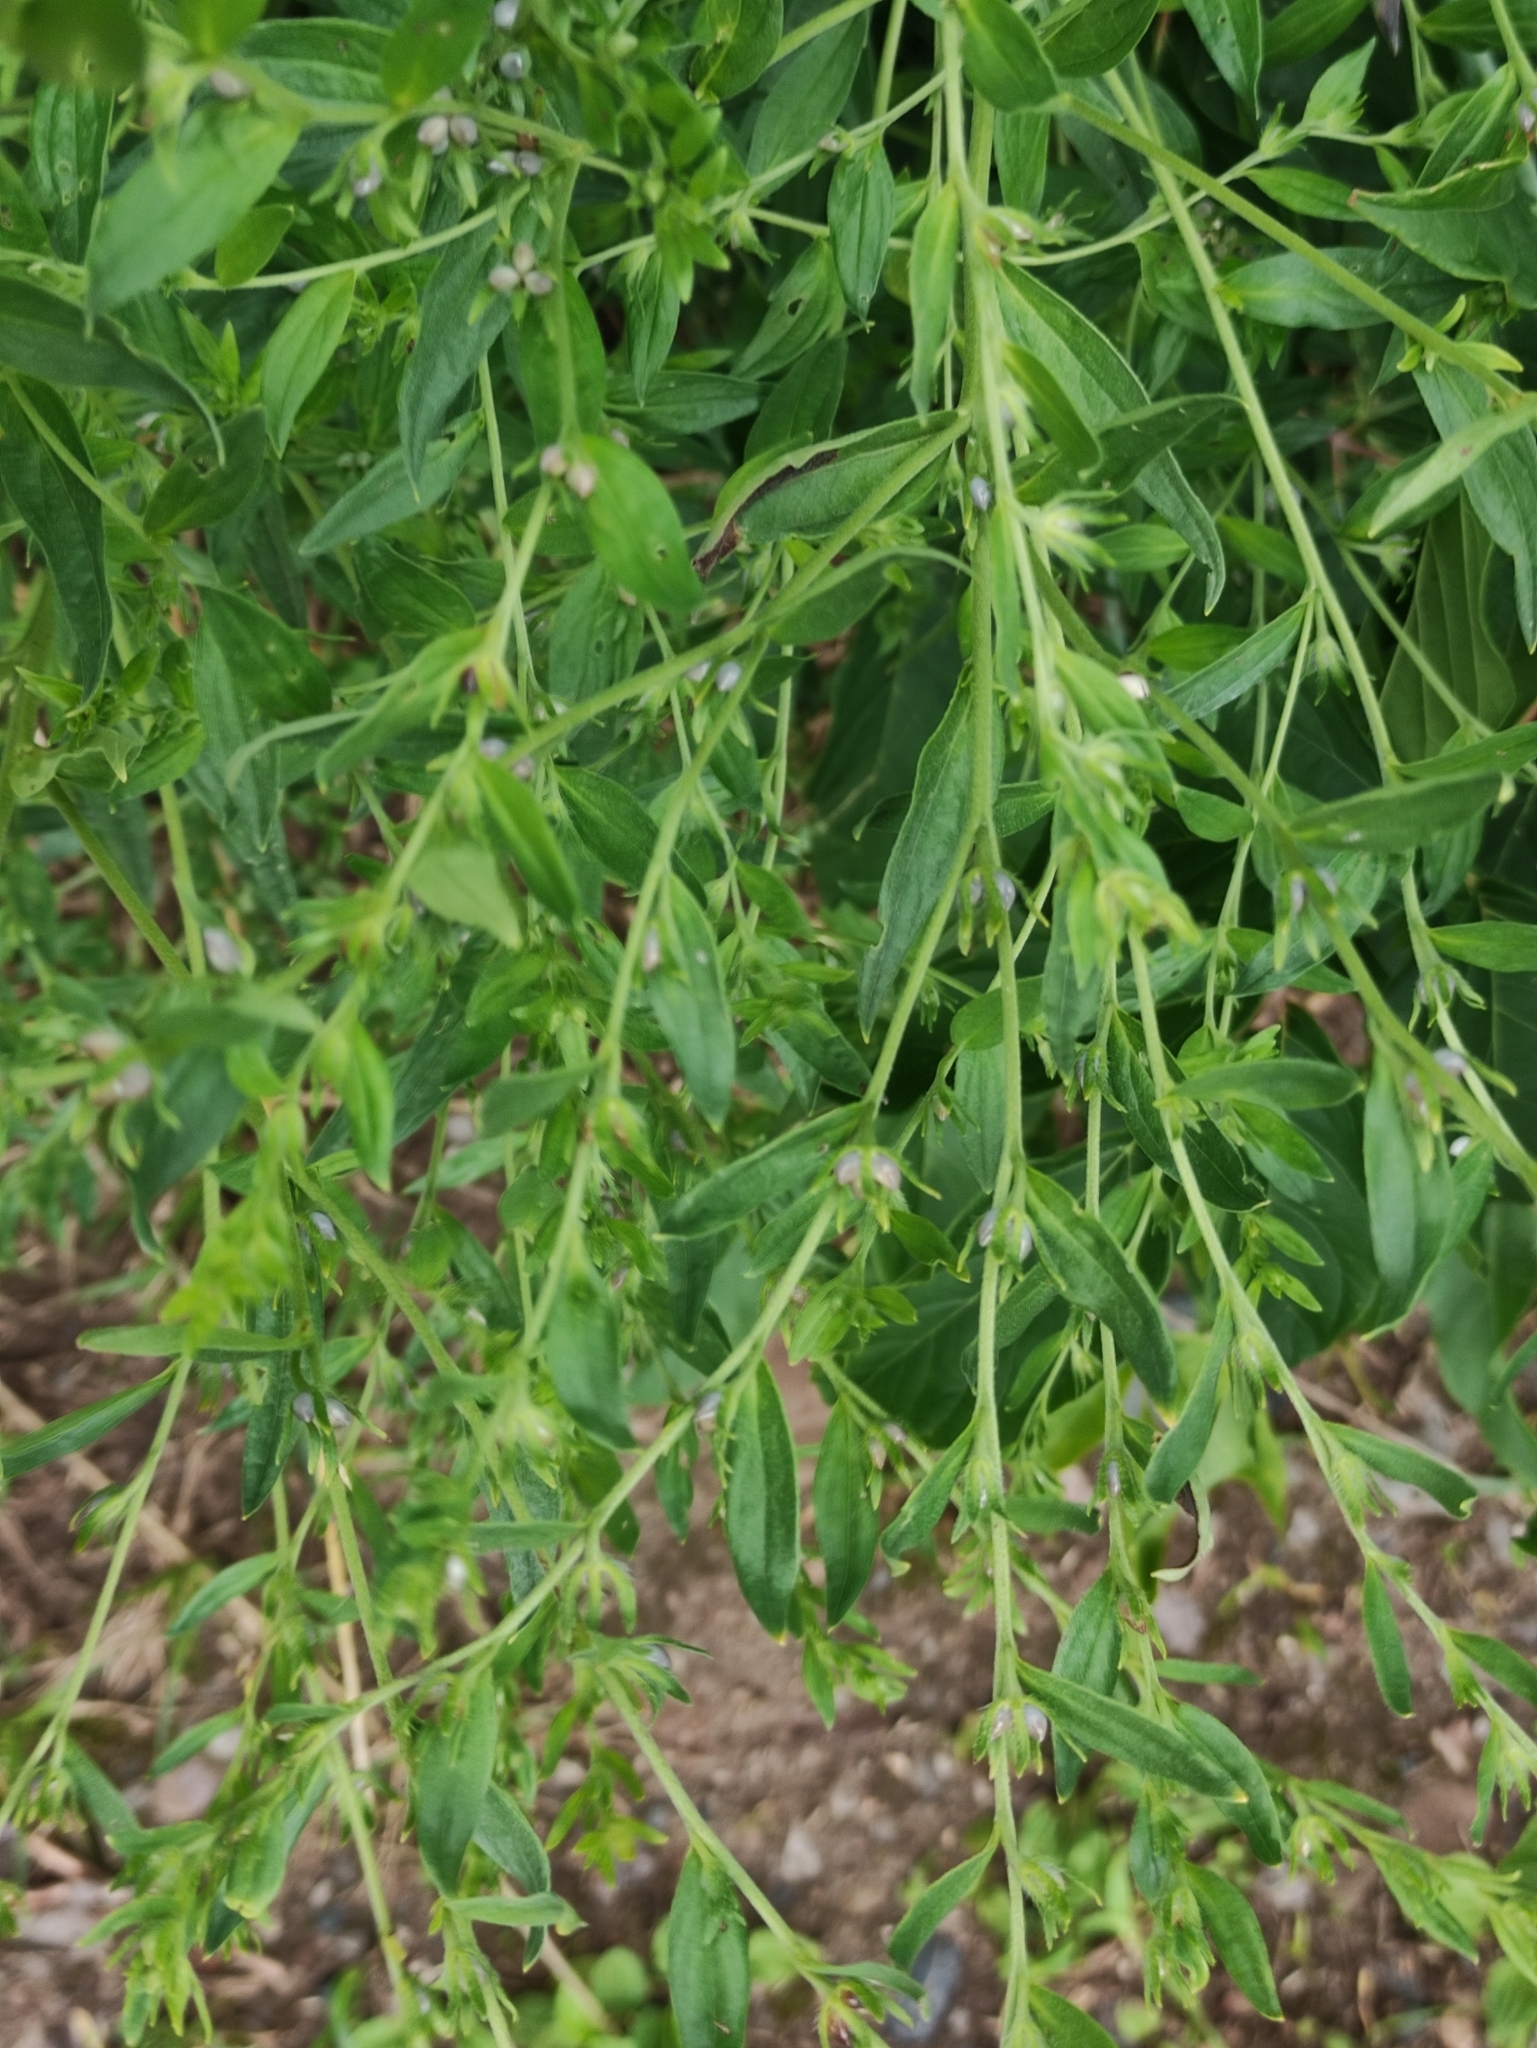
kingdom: Plantae
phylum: Tracheophyta
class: Magnoliopsida
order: Boraginales
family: Boraginaceae
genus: Lithospermum
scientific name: Lithospermum officinale
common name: Common gromwell
